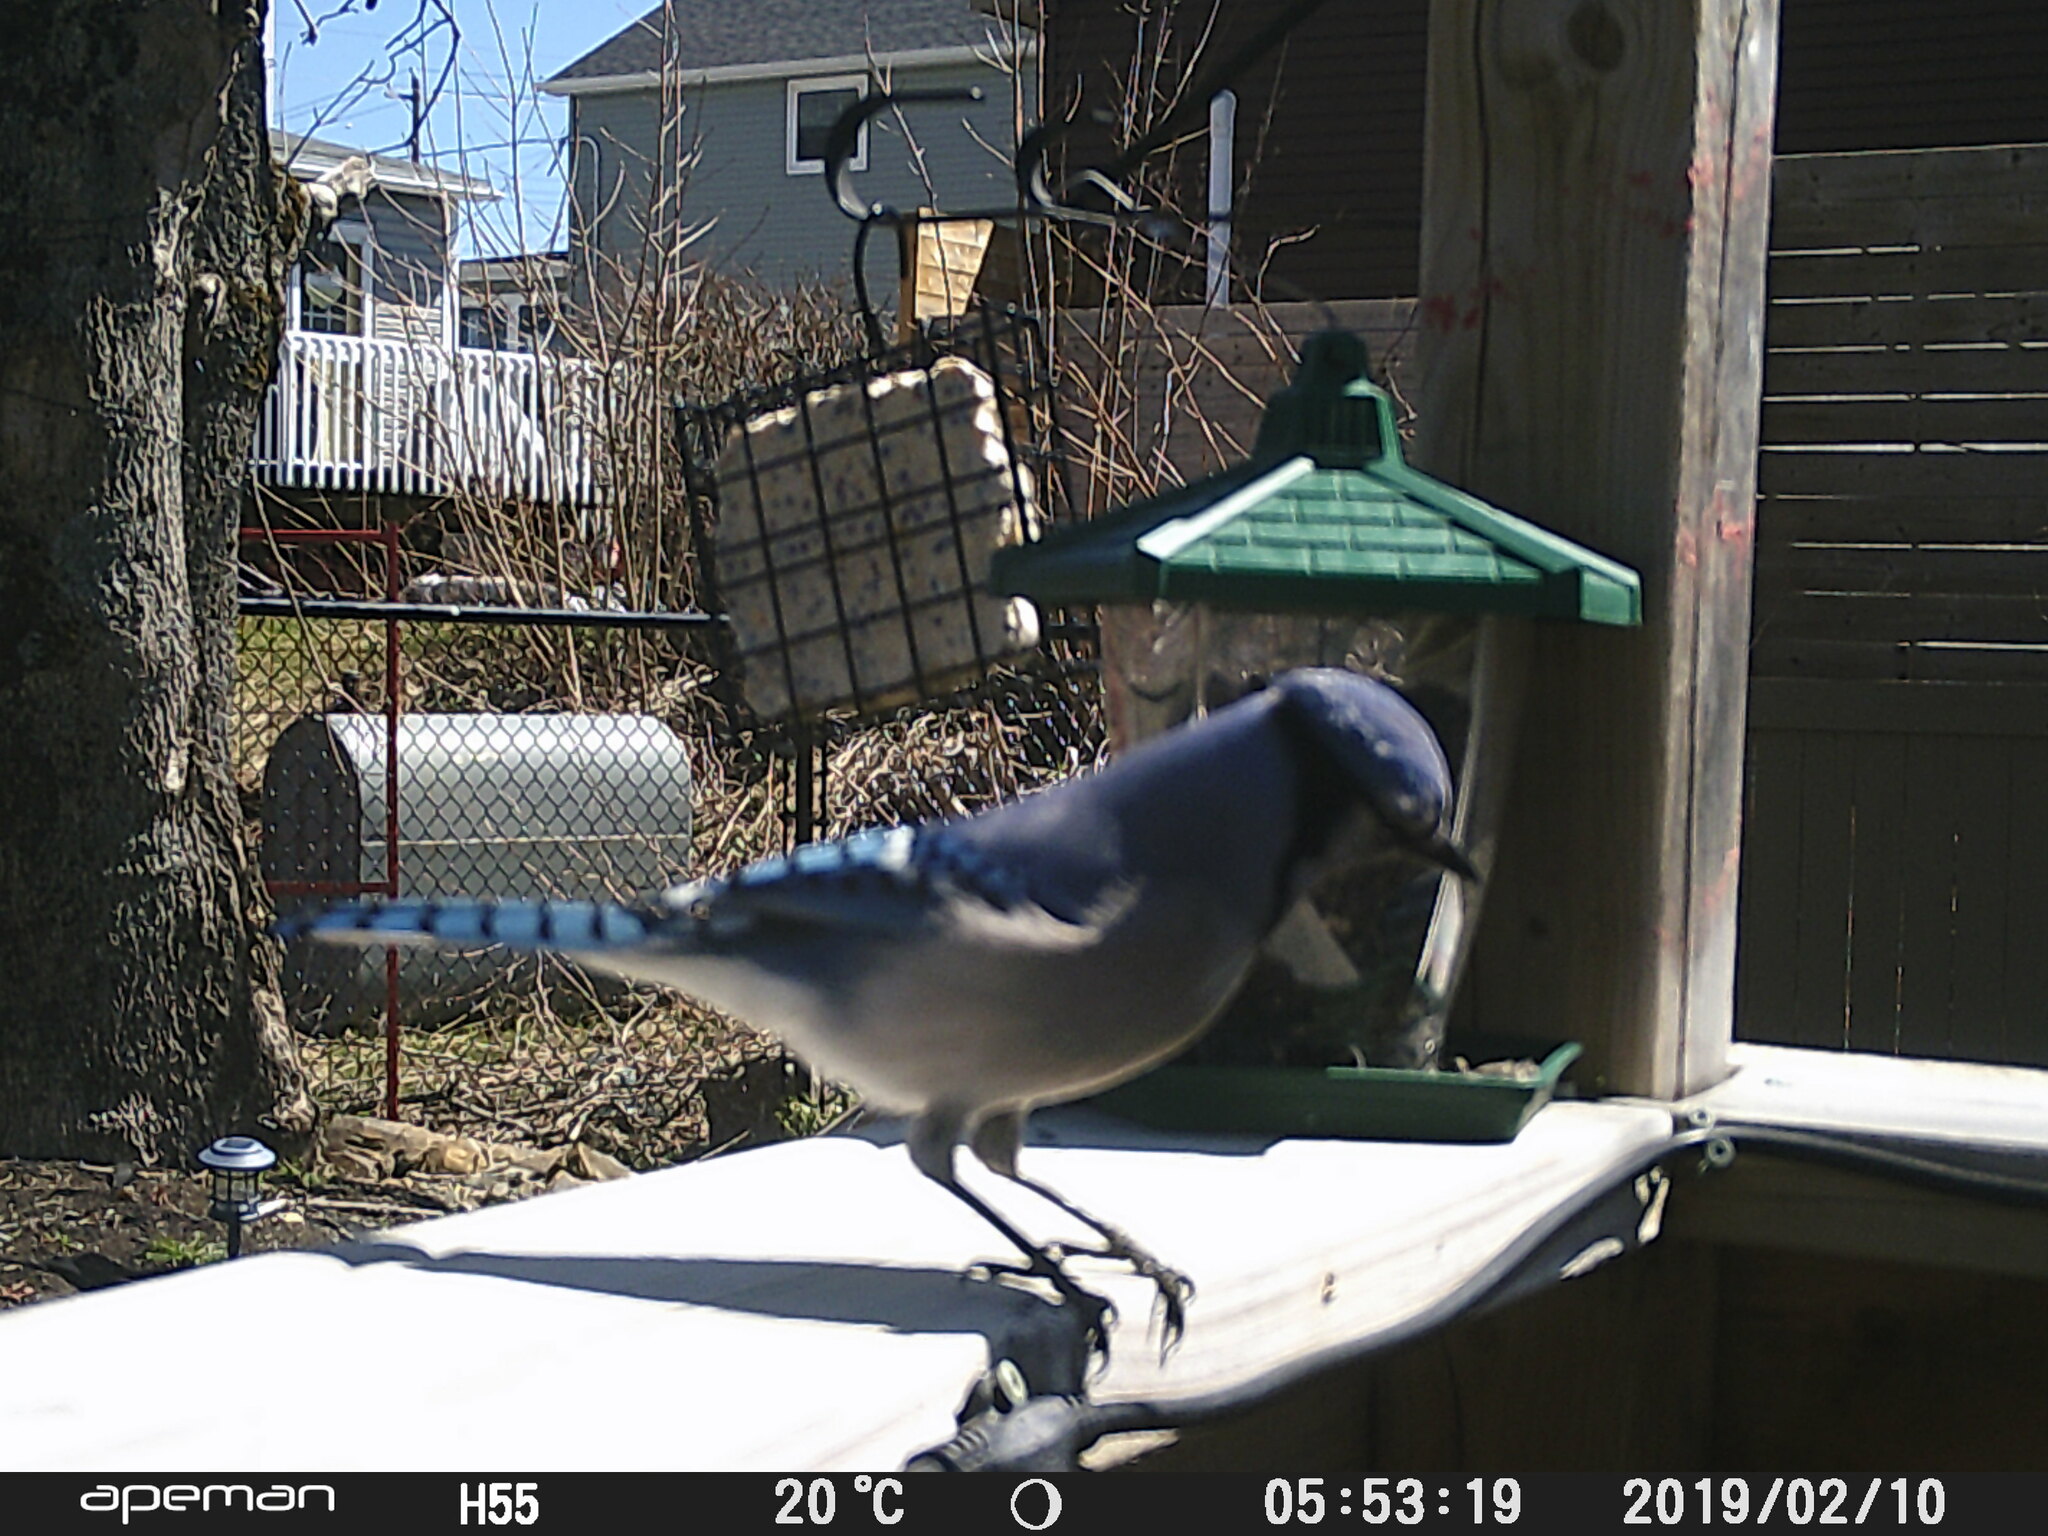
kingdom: Animalia
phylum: Chordata
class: Aves
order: Passeriformes
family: Corvidae
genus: Cyanocitta
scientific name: Cyanocitta cristata
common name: Blue jay
